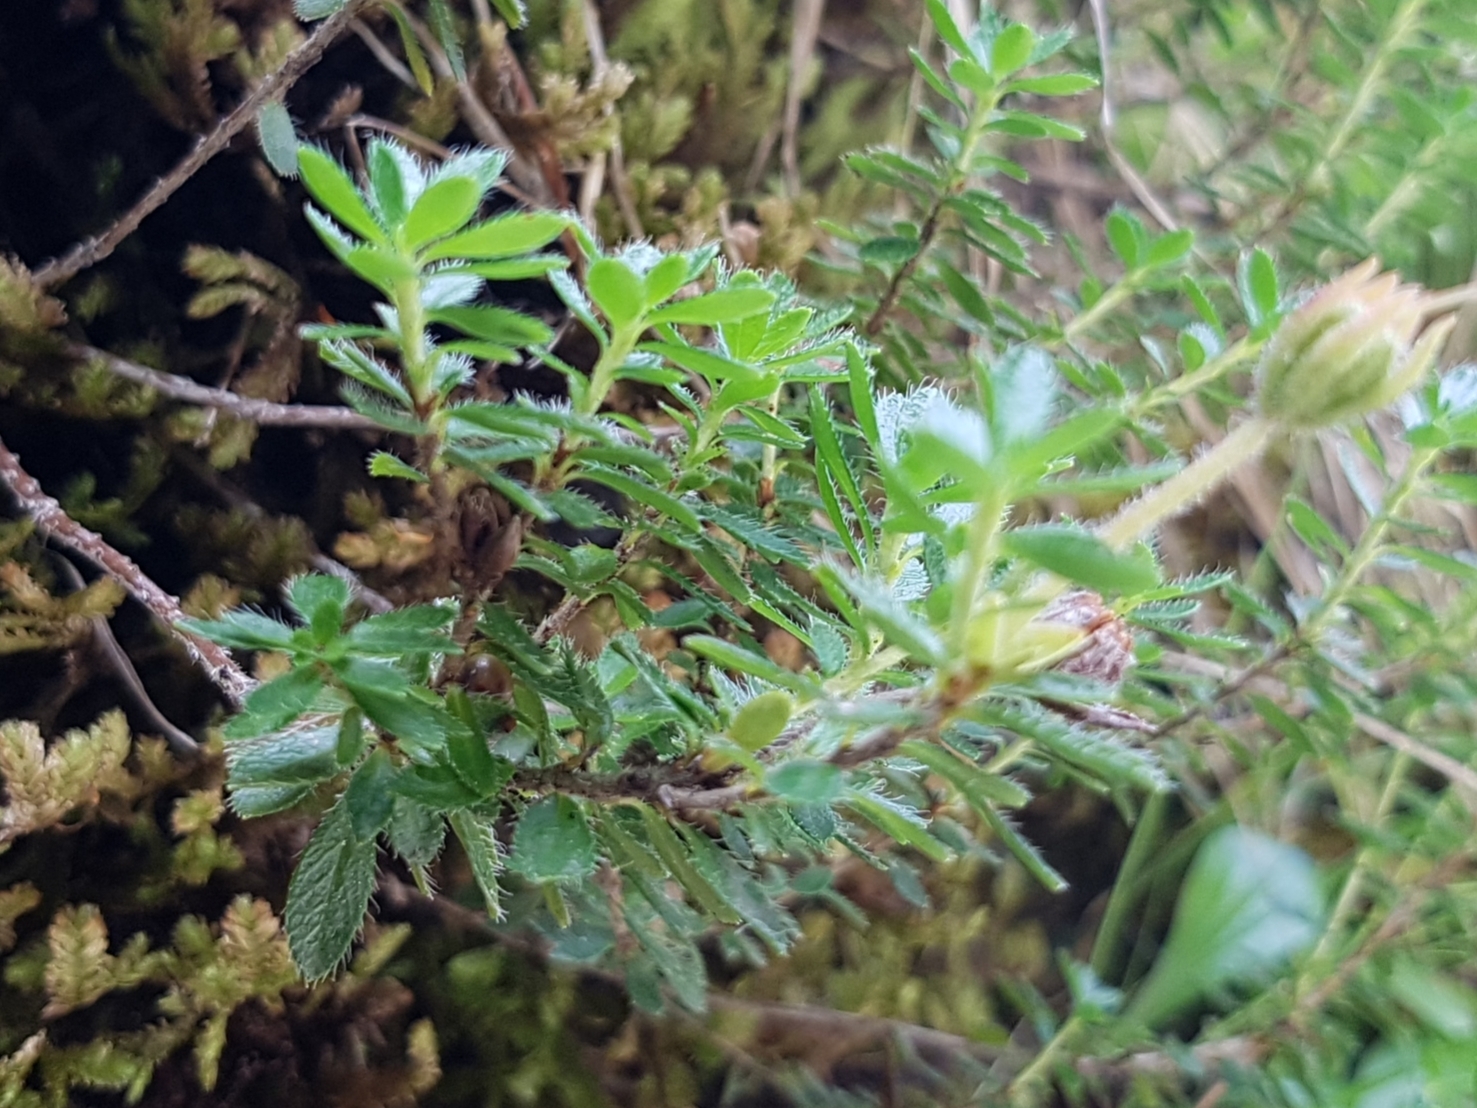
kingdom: Plantae
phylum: Tracheophyta
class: Magnoliopsida
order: Ericales
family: Ericaceae
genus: Rhodothamnus
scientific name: Rhodothamnus chamaecistus
